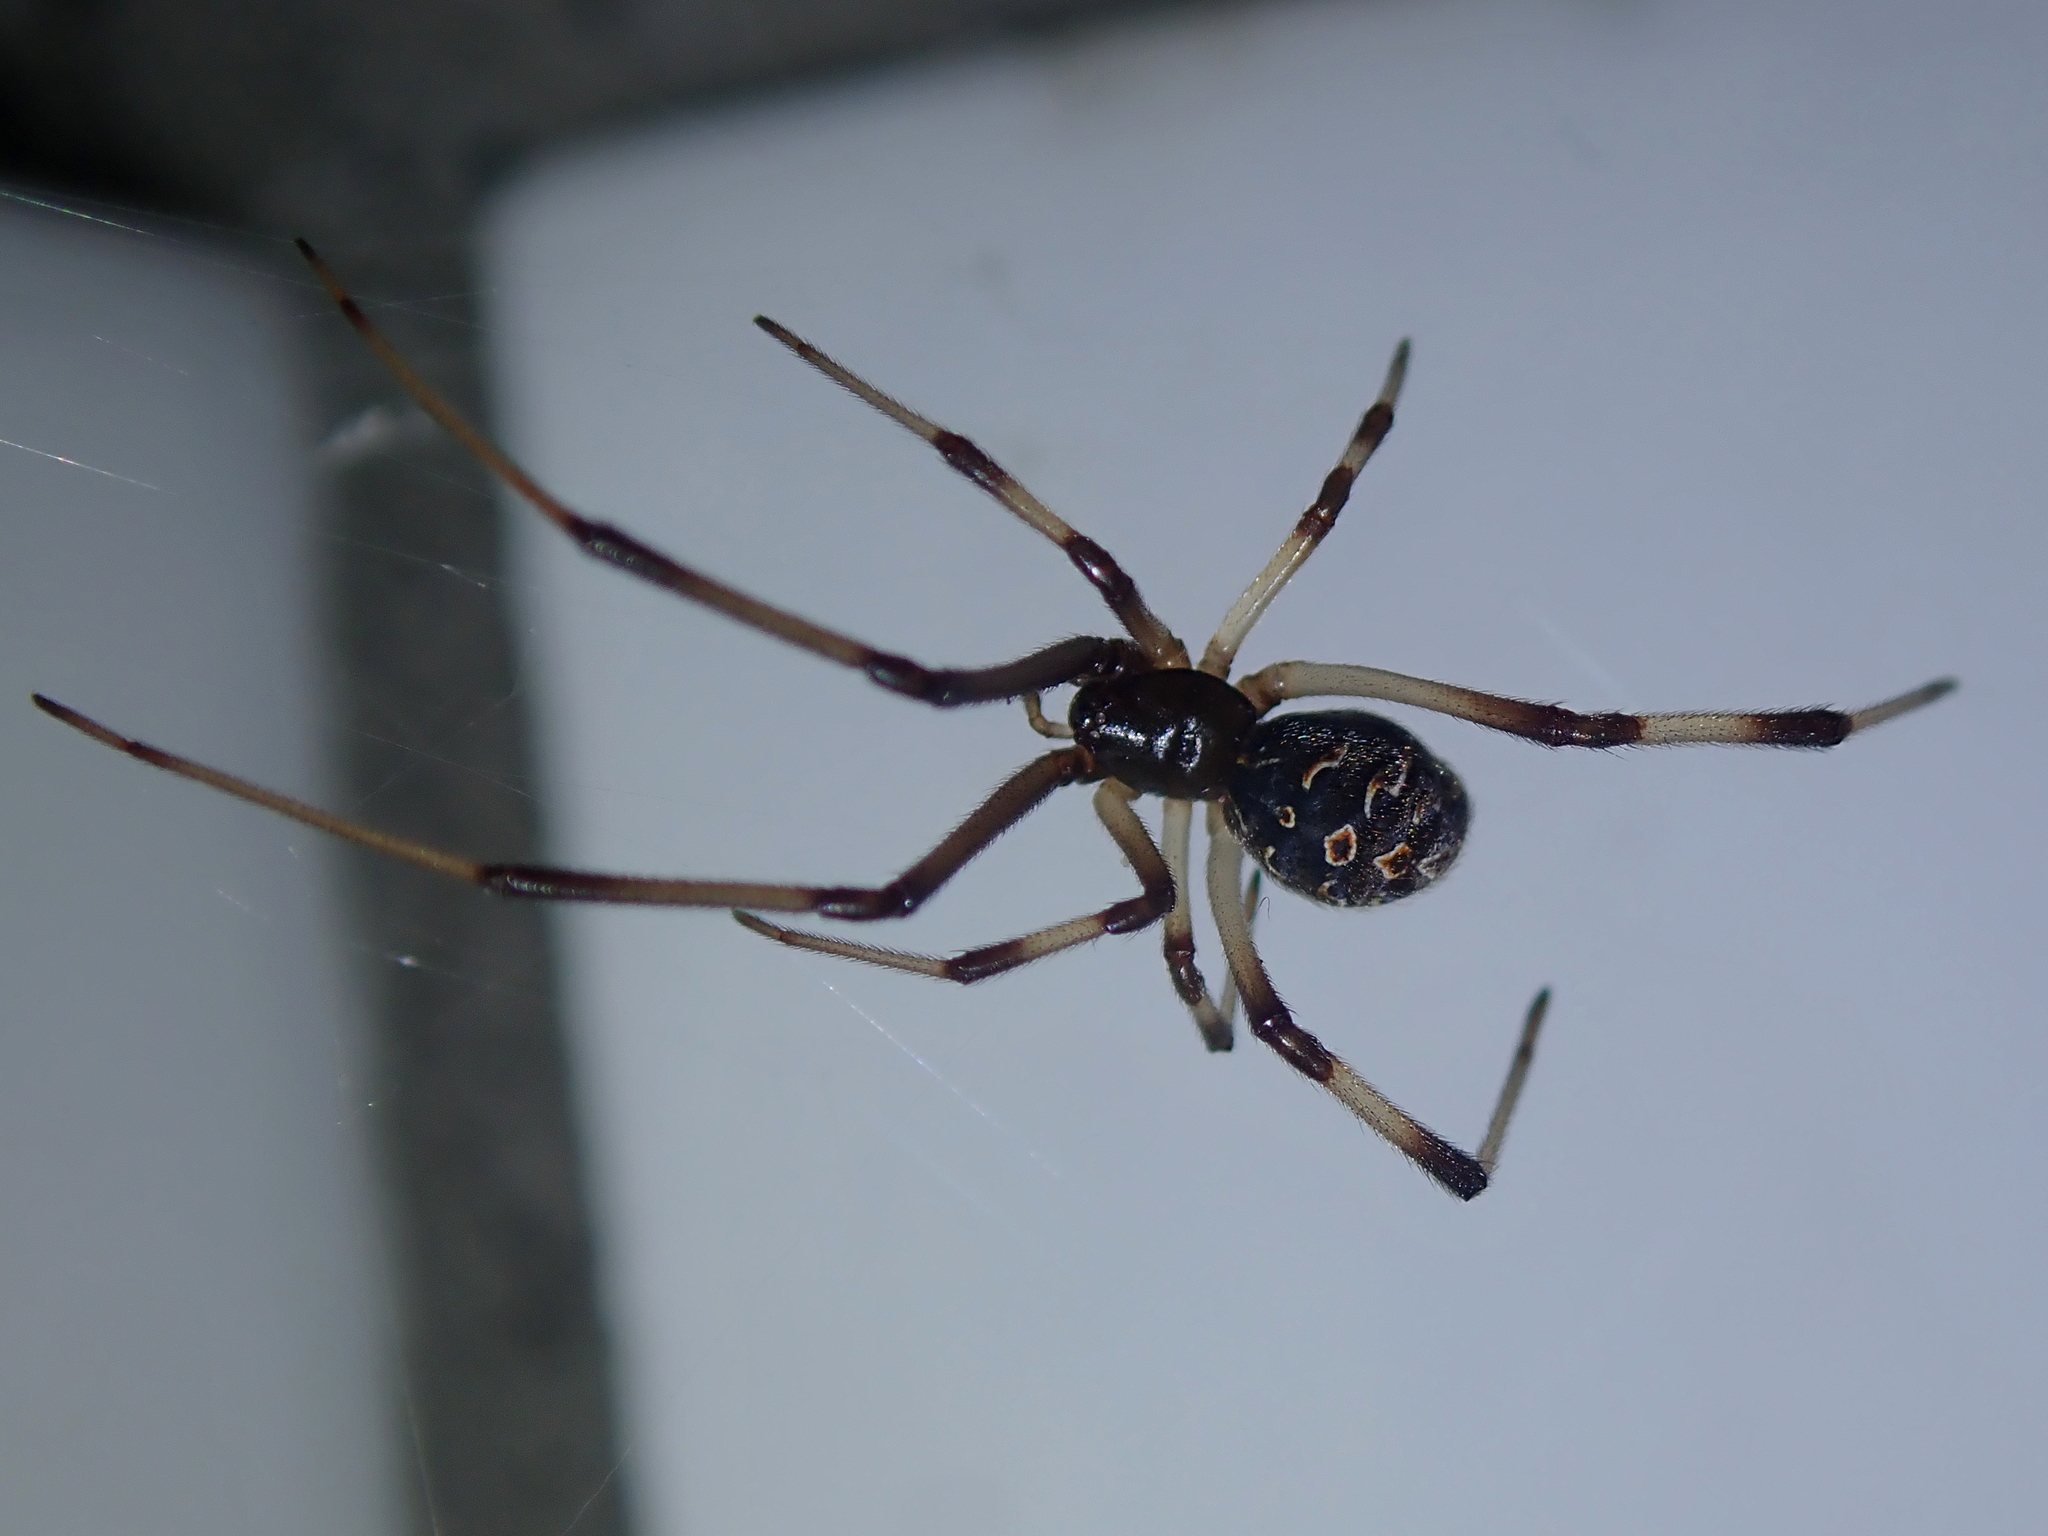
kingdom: Animalia
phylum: Arthropoda
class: Arachnida
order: Araneae
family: Theridiidae
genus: Latrodectus
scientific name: Latrodectus geometricus
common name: Brown widow spider
